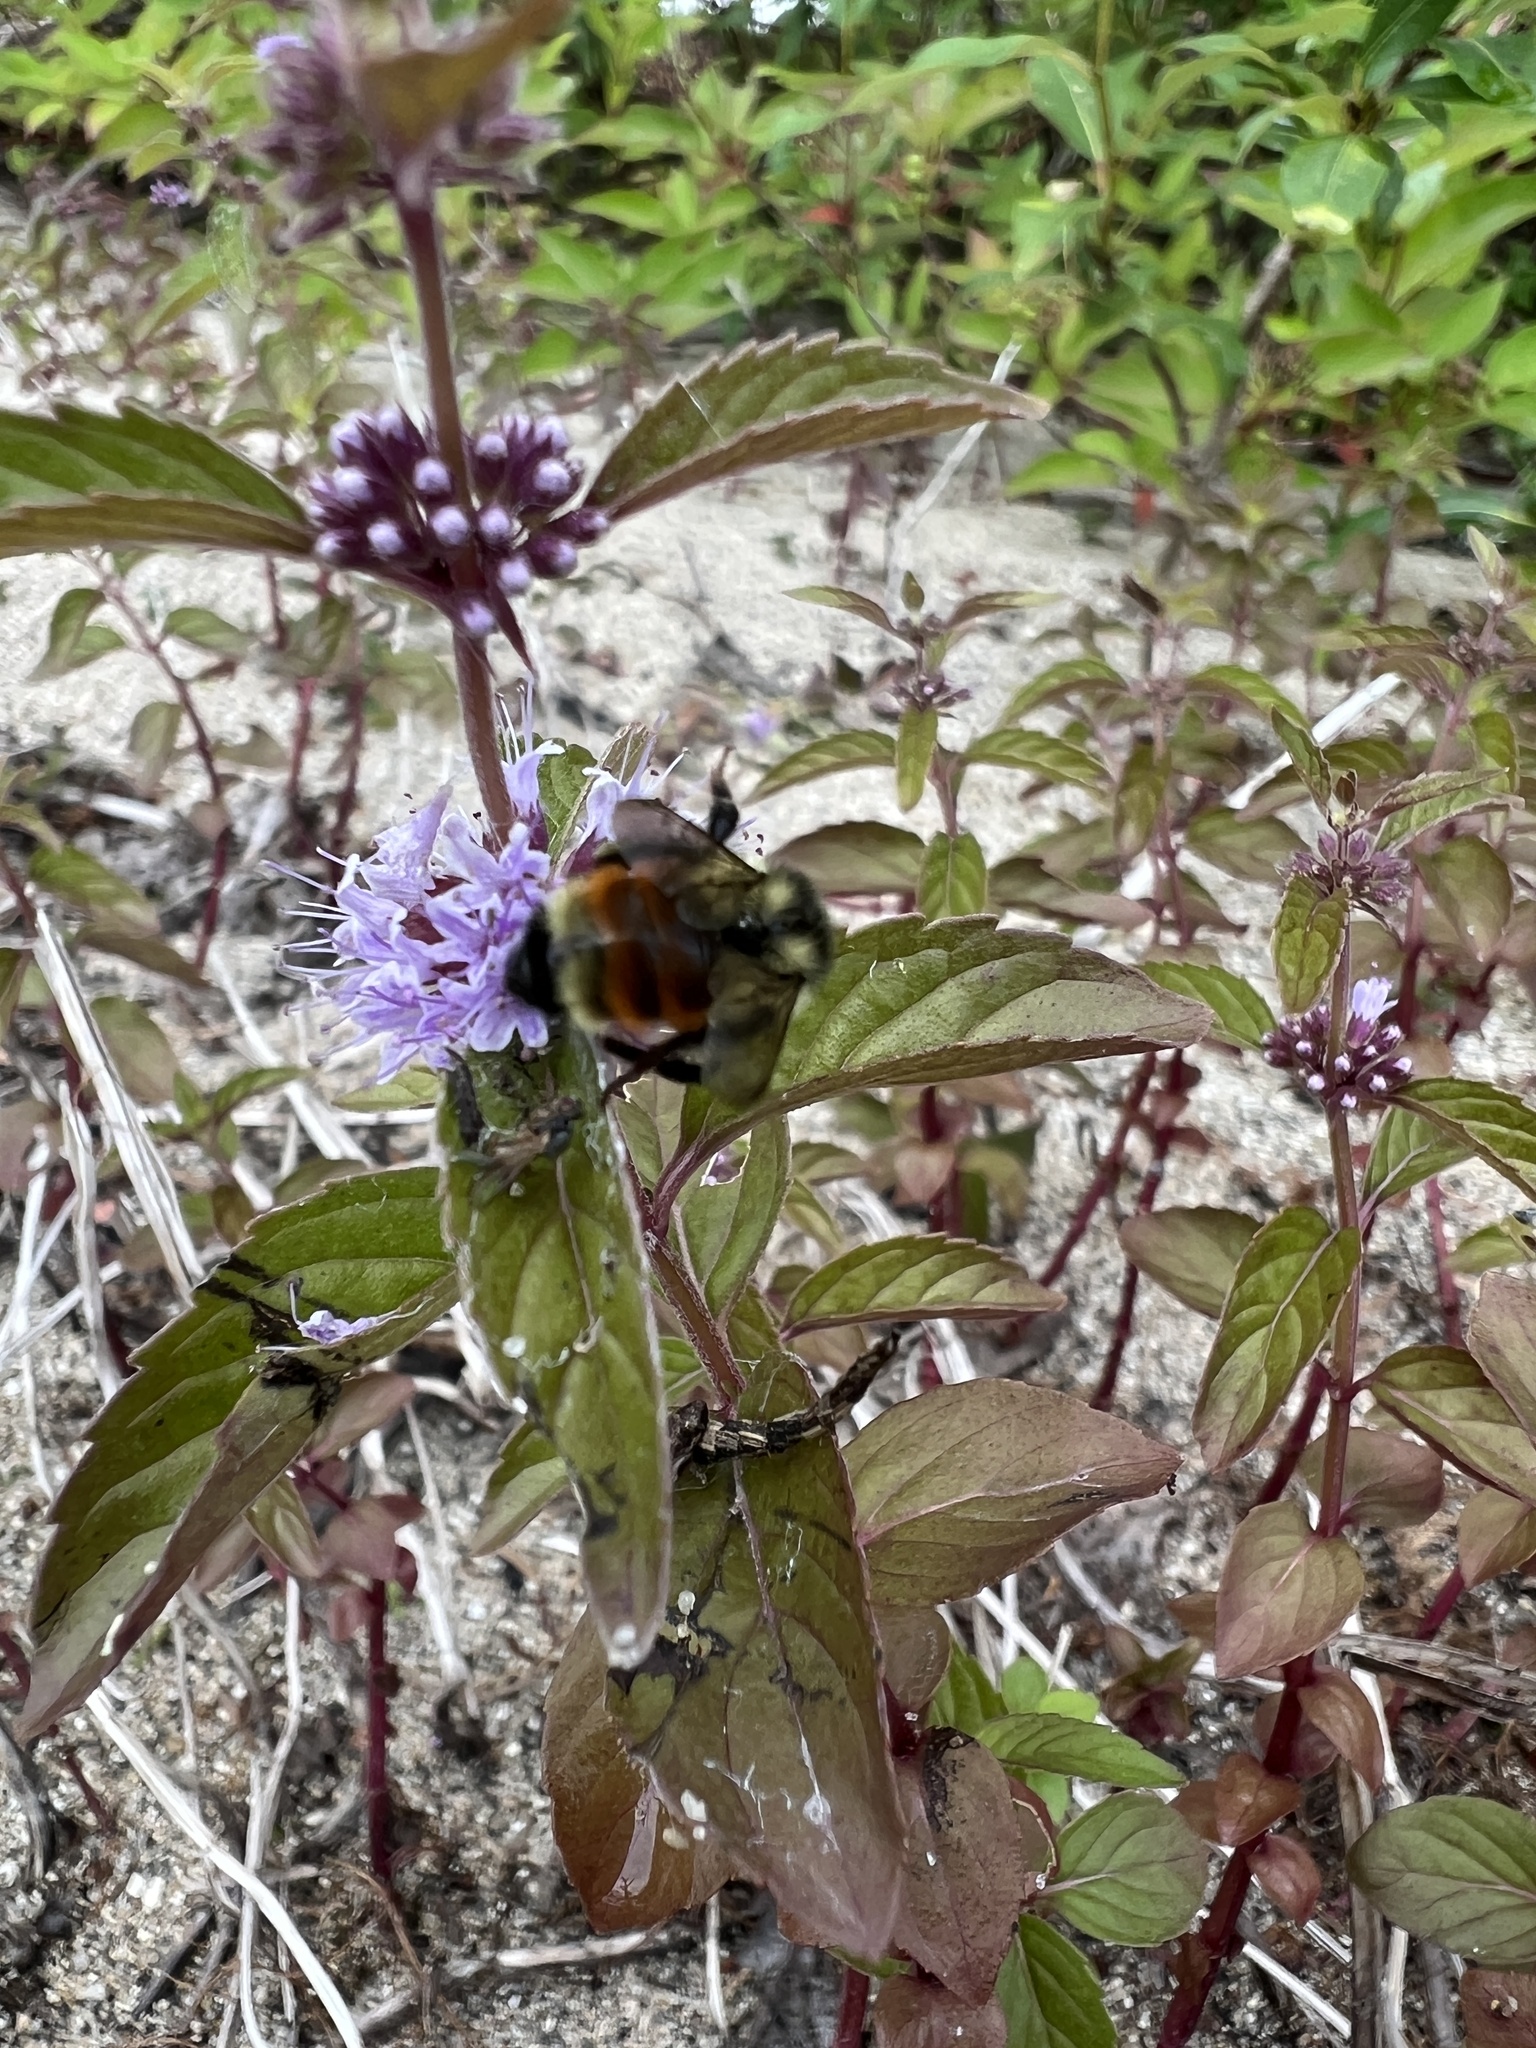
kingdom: Animalia
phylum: Arthropoda
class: Insecta
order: Hymenoptera
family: Apidae
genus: Bombus
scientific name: Bombus ternarius
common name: Tri-colored bumble bee
